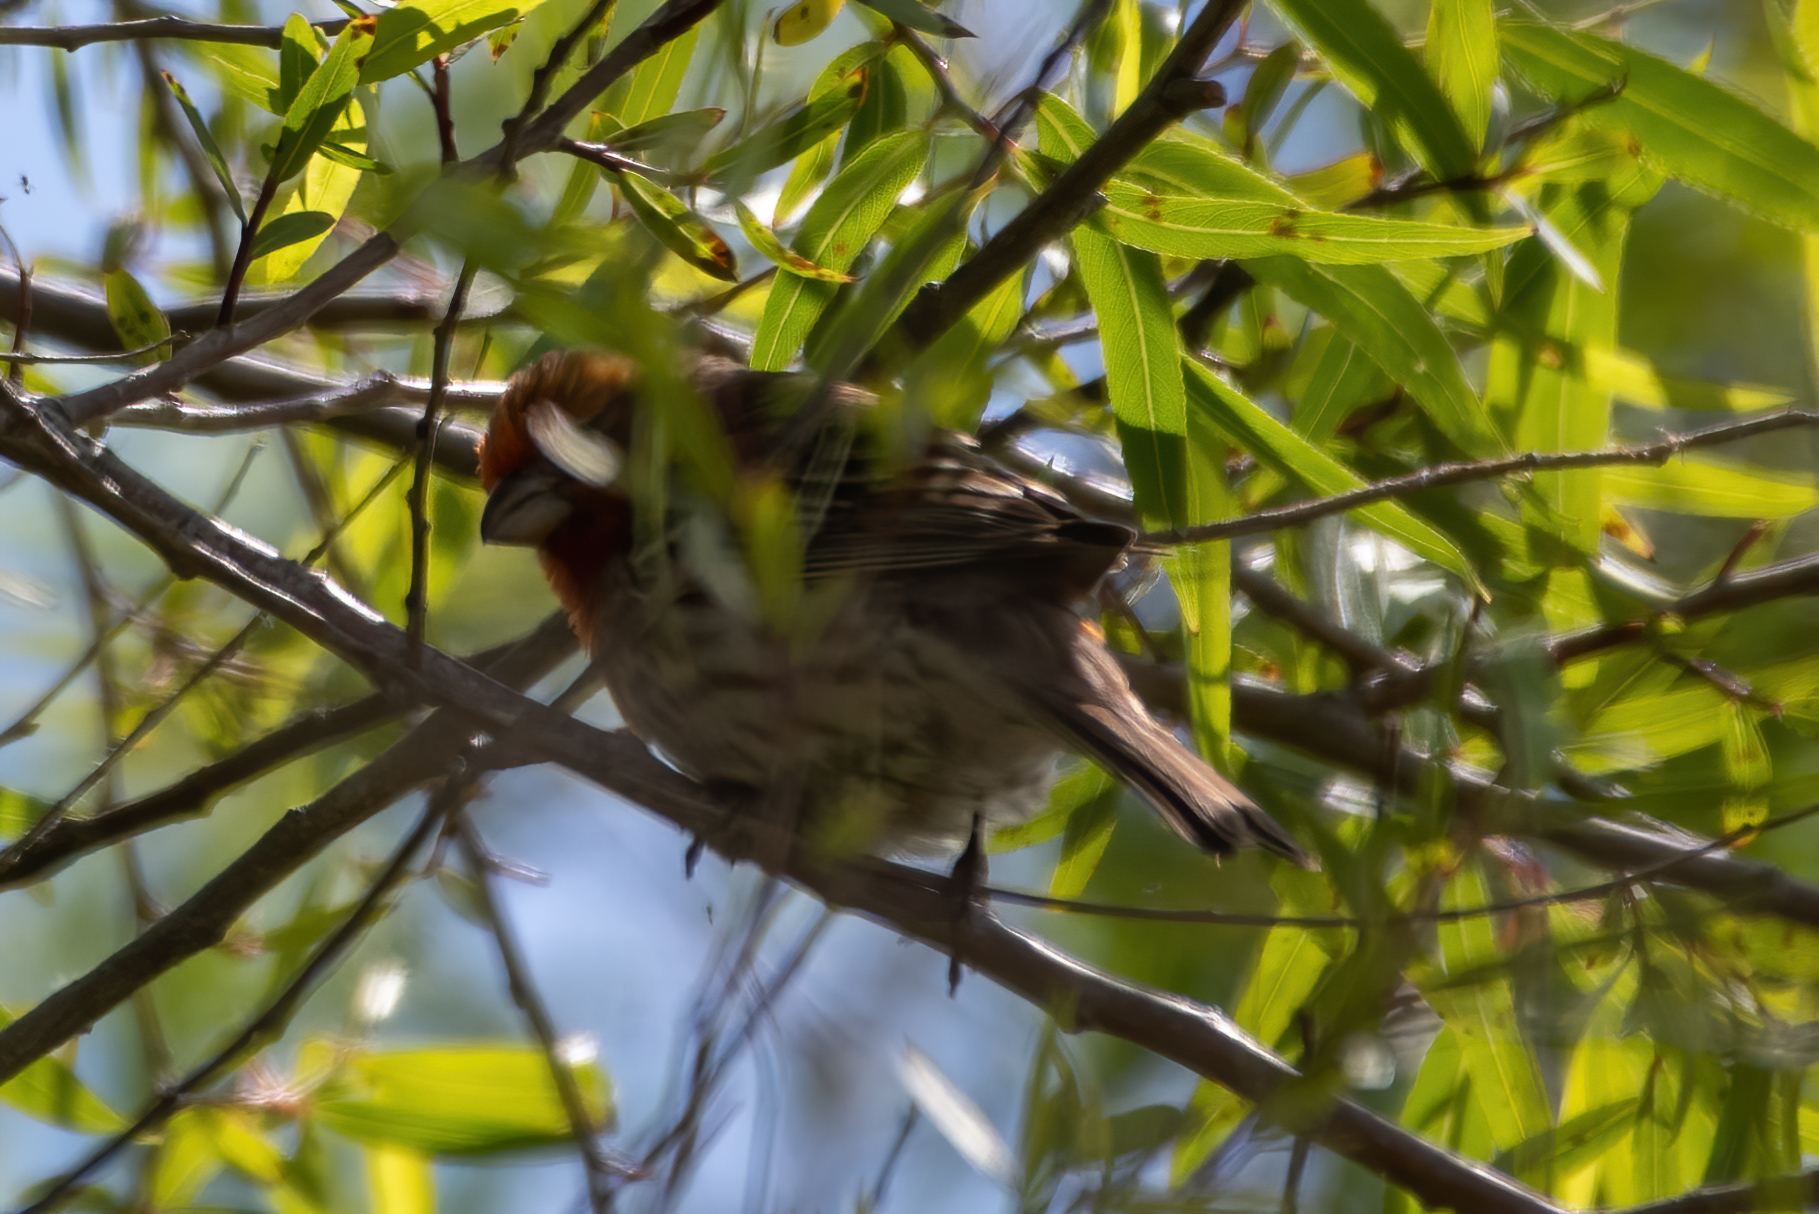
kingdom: Animalia
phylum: Chordata
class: Aves
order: Passeriformes
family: Fringillidae
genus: Haemorhous
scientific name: Haemorhous mexicanus
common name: House finch
